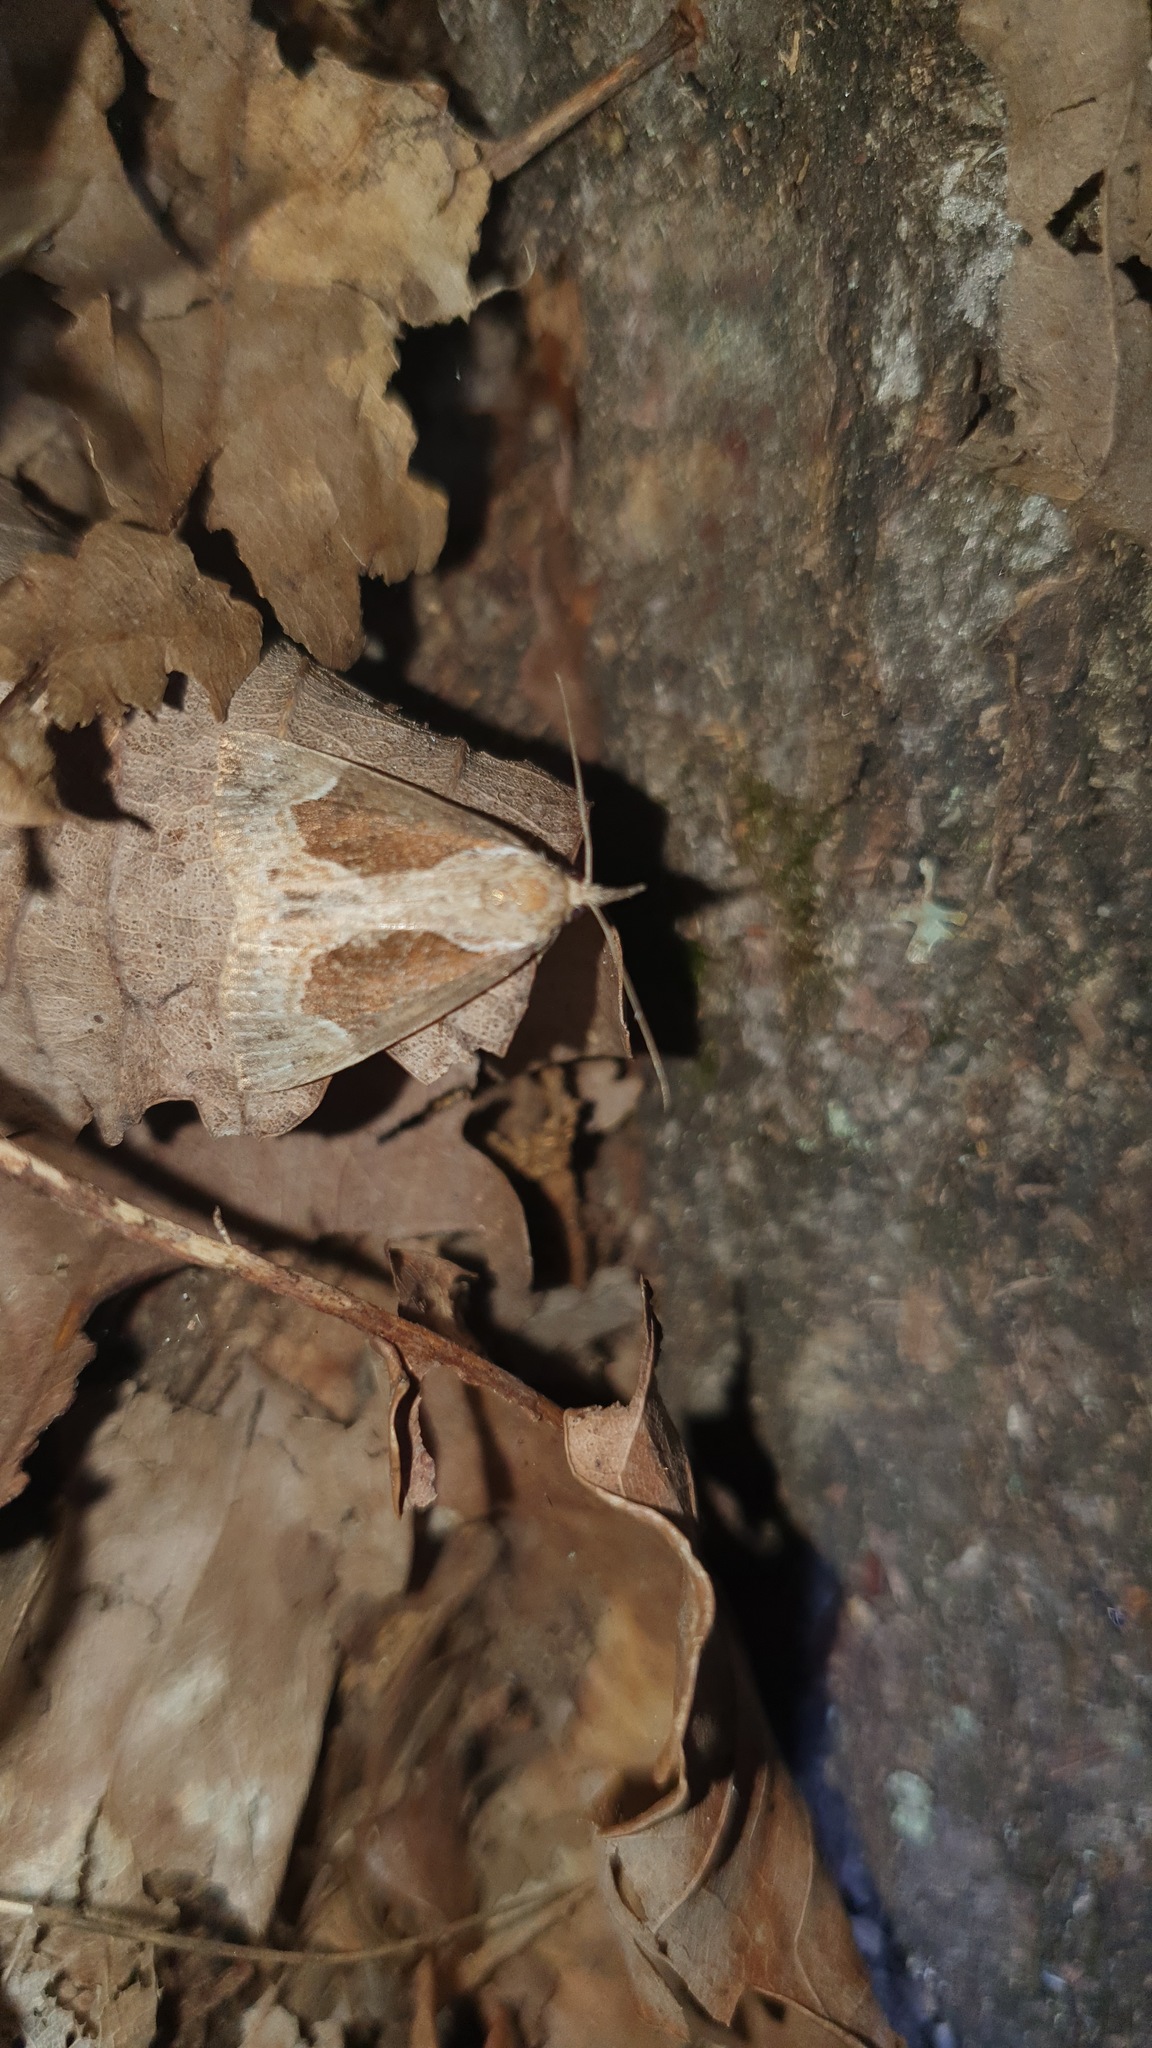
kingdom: Animalia
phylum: Arthropoda
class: Insecta
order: Lepidoptera
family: Erebidae
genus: Hypena
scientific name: Hypena crassalis
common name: Beautiful snout
